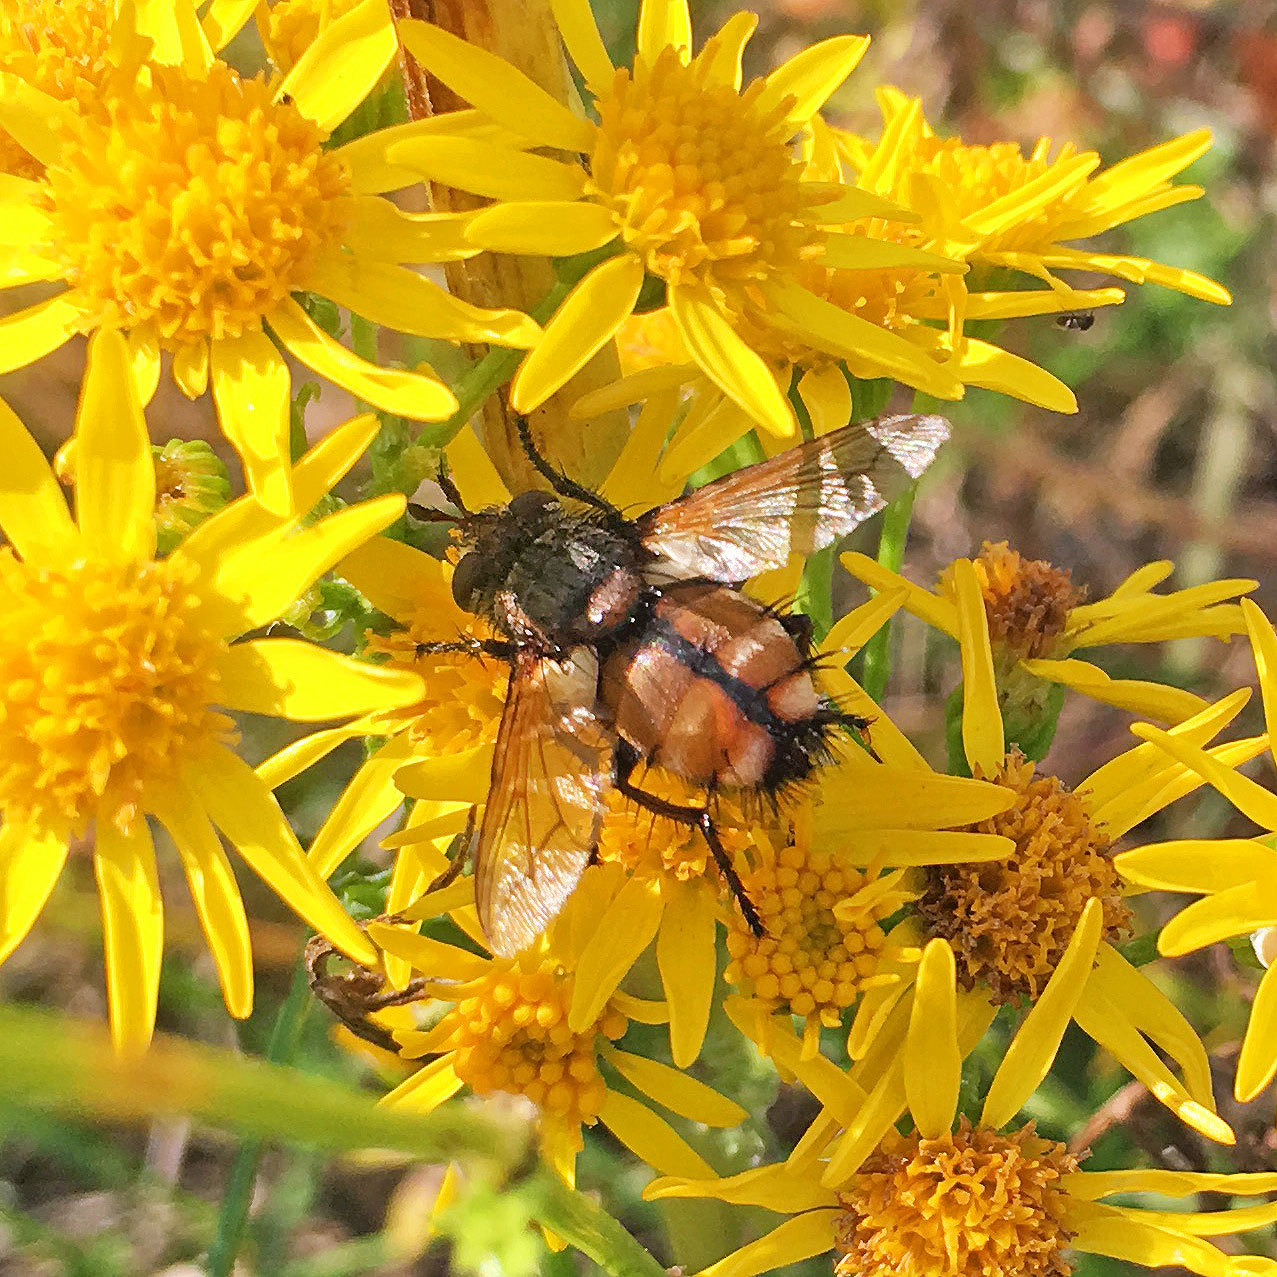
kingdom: Animalia
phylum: Arthropoda
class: Insecta
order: Diptera
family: Tachinidae
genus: Peleteria
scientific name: Peleteria rubescens
